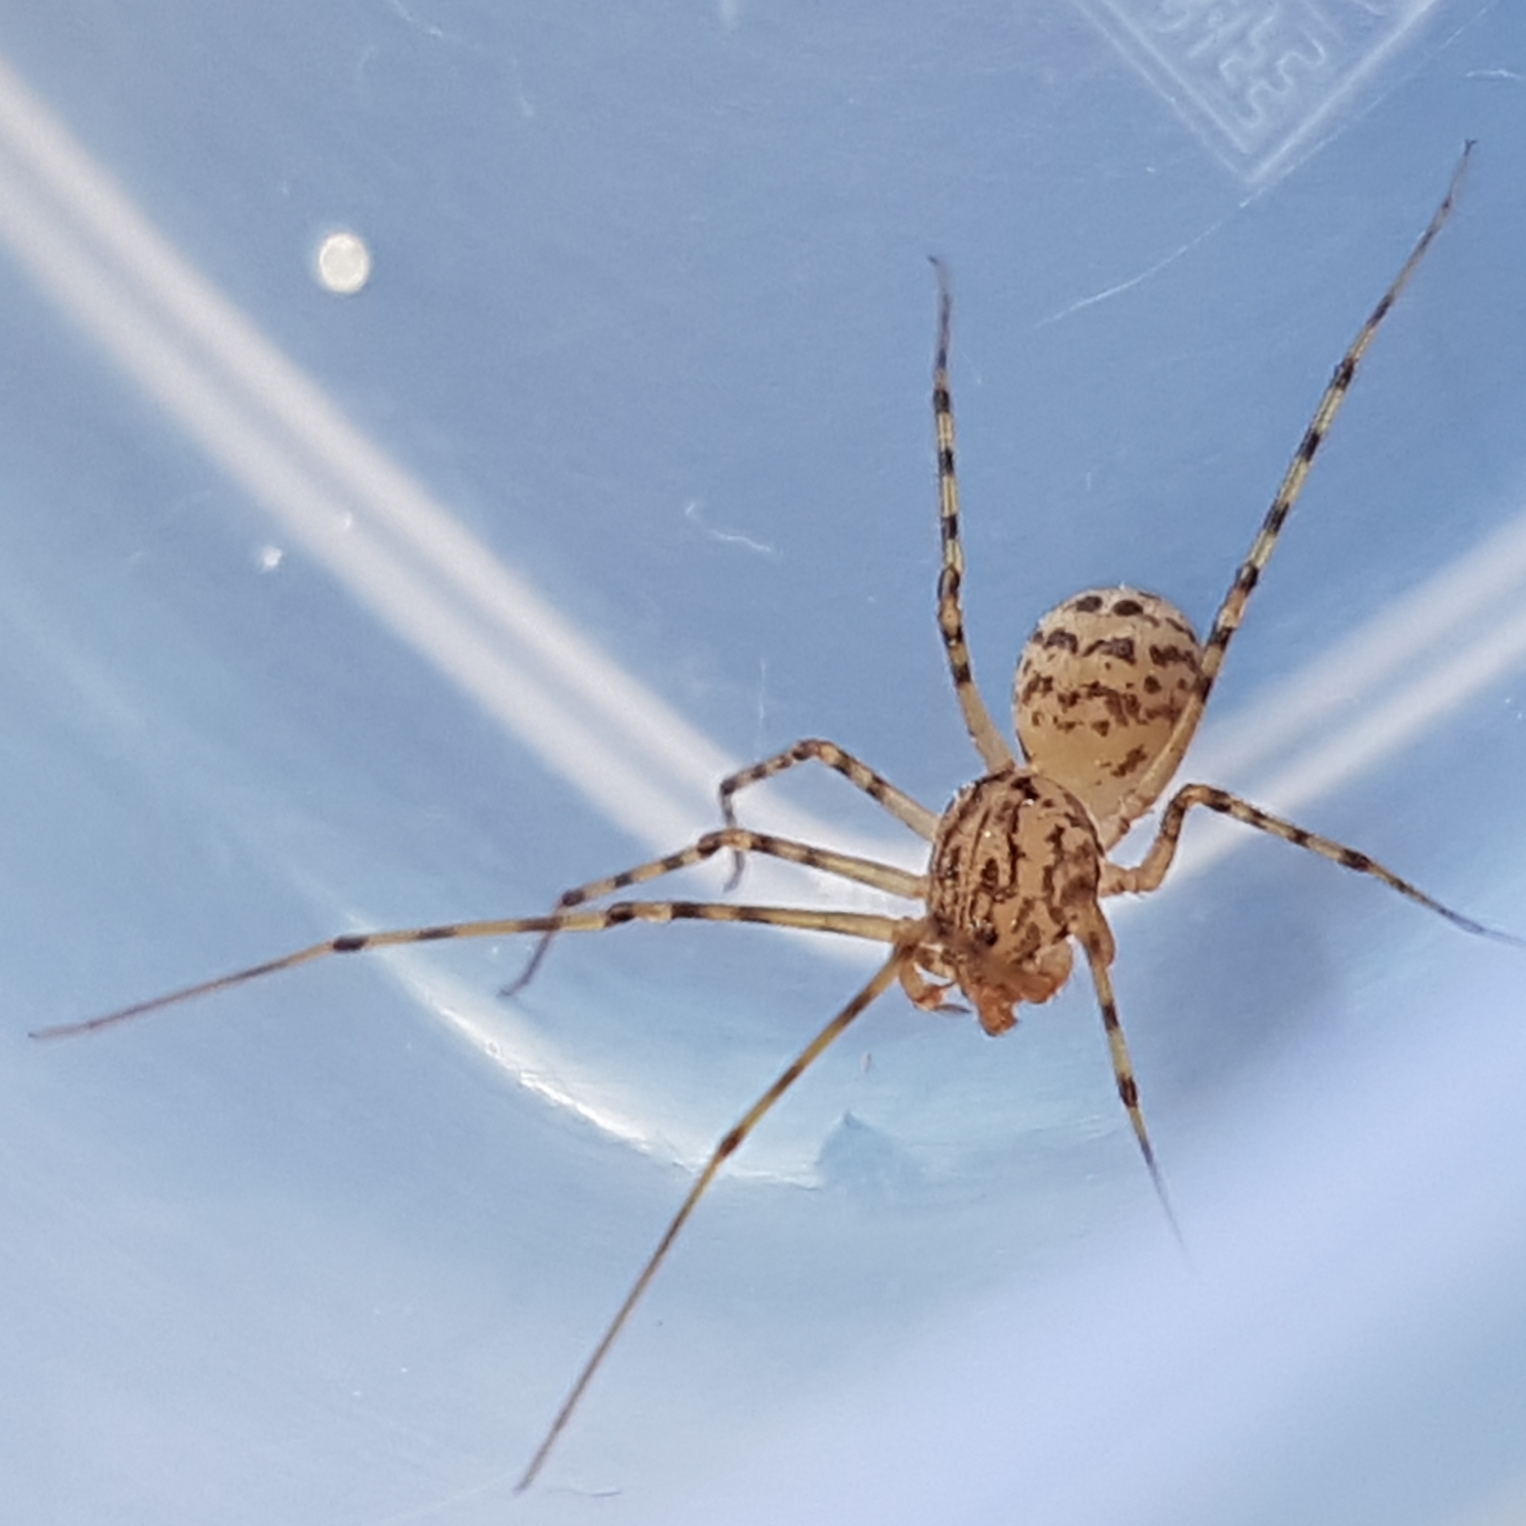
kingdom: Animalia
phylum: Arthropoda
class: Arachnida
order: Araneae
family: Scytodidae
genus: Scytodes
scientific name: Scytodes thoracica
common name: Spitting spider
